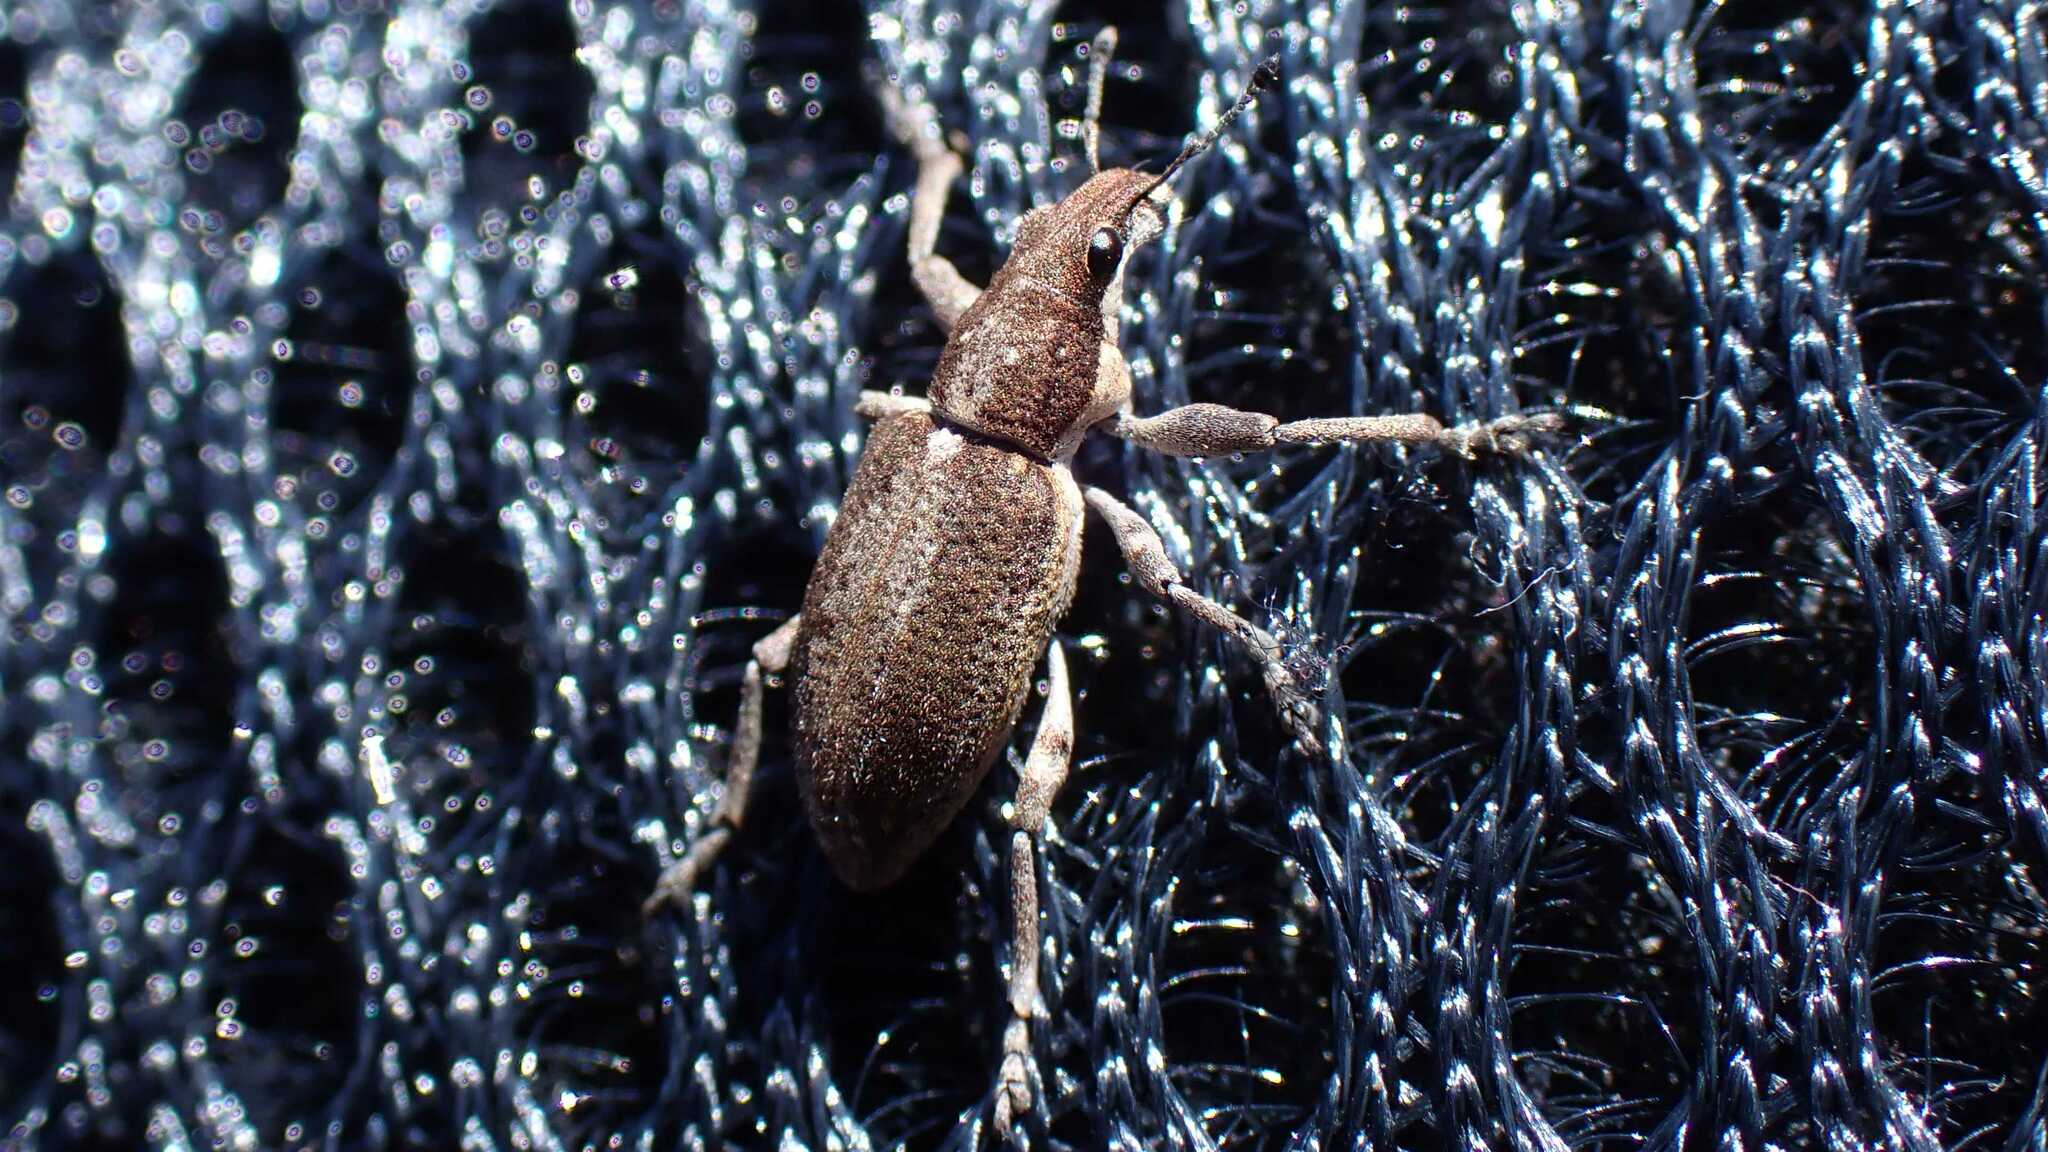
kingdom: Animalia
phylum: Arthropoda
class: Insecta
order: Coleoptera
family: Curculionidae
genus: Charagmus
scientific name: Charagmus griseus
